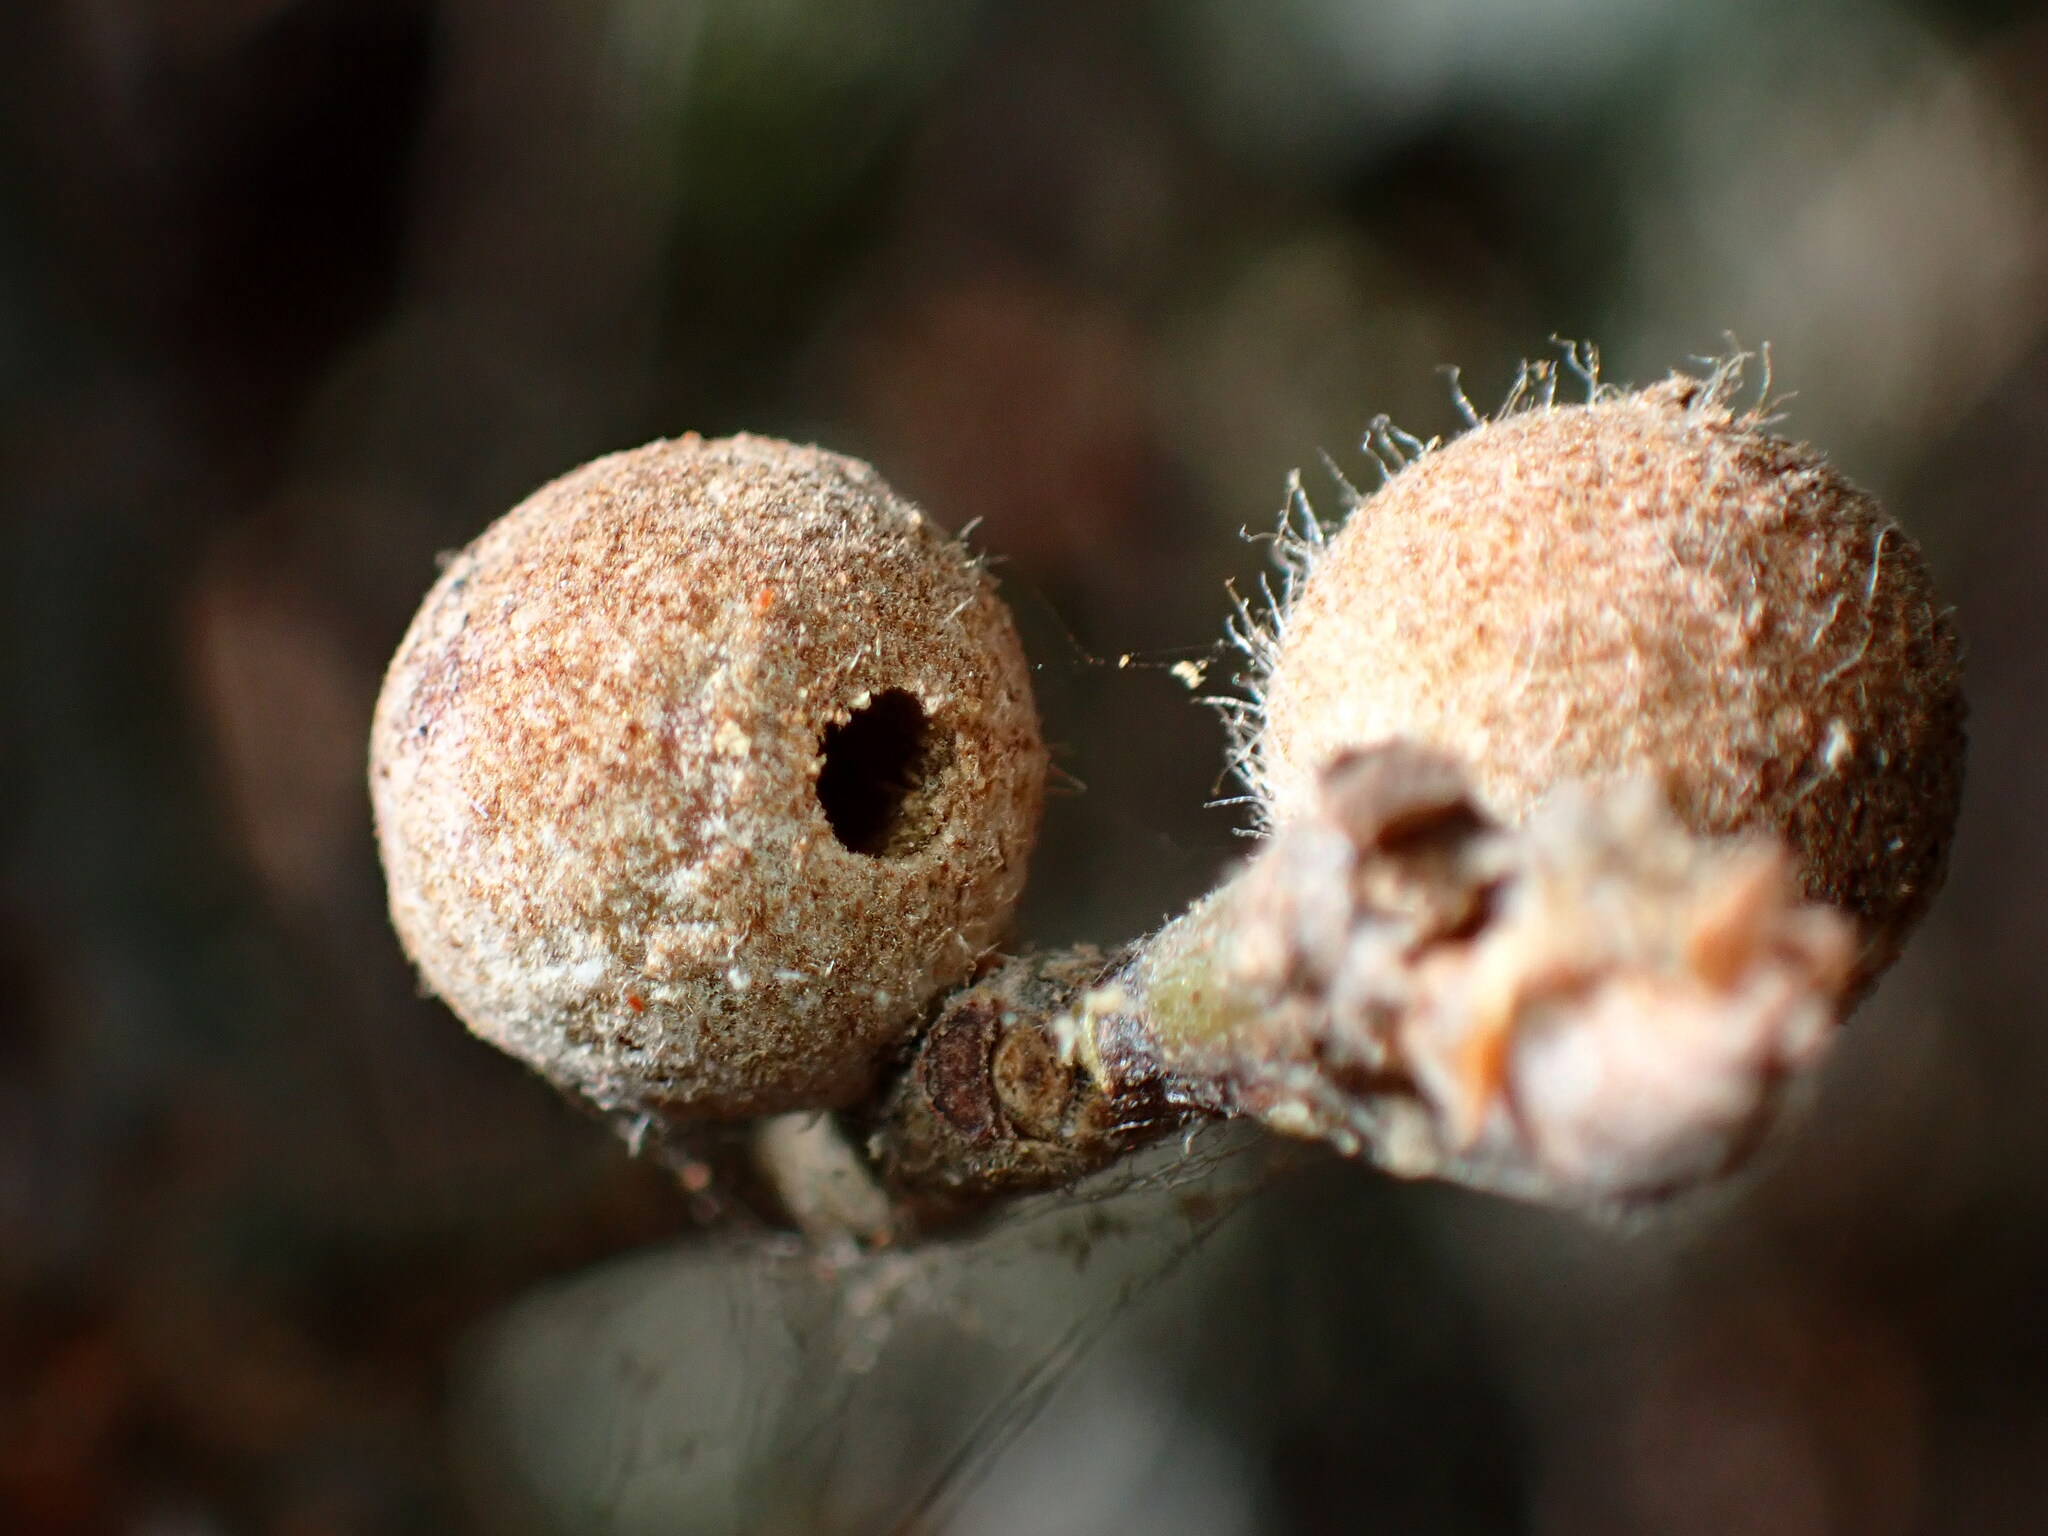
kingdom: Animalia
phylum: Arthropoda
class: Insecta
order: Hymenoptera
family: Cynipidae
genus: Burnettweldia
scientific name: Burnettweldia
